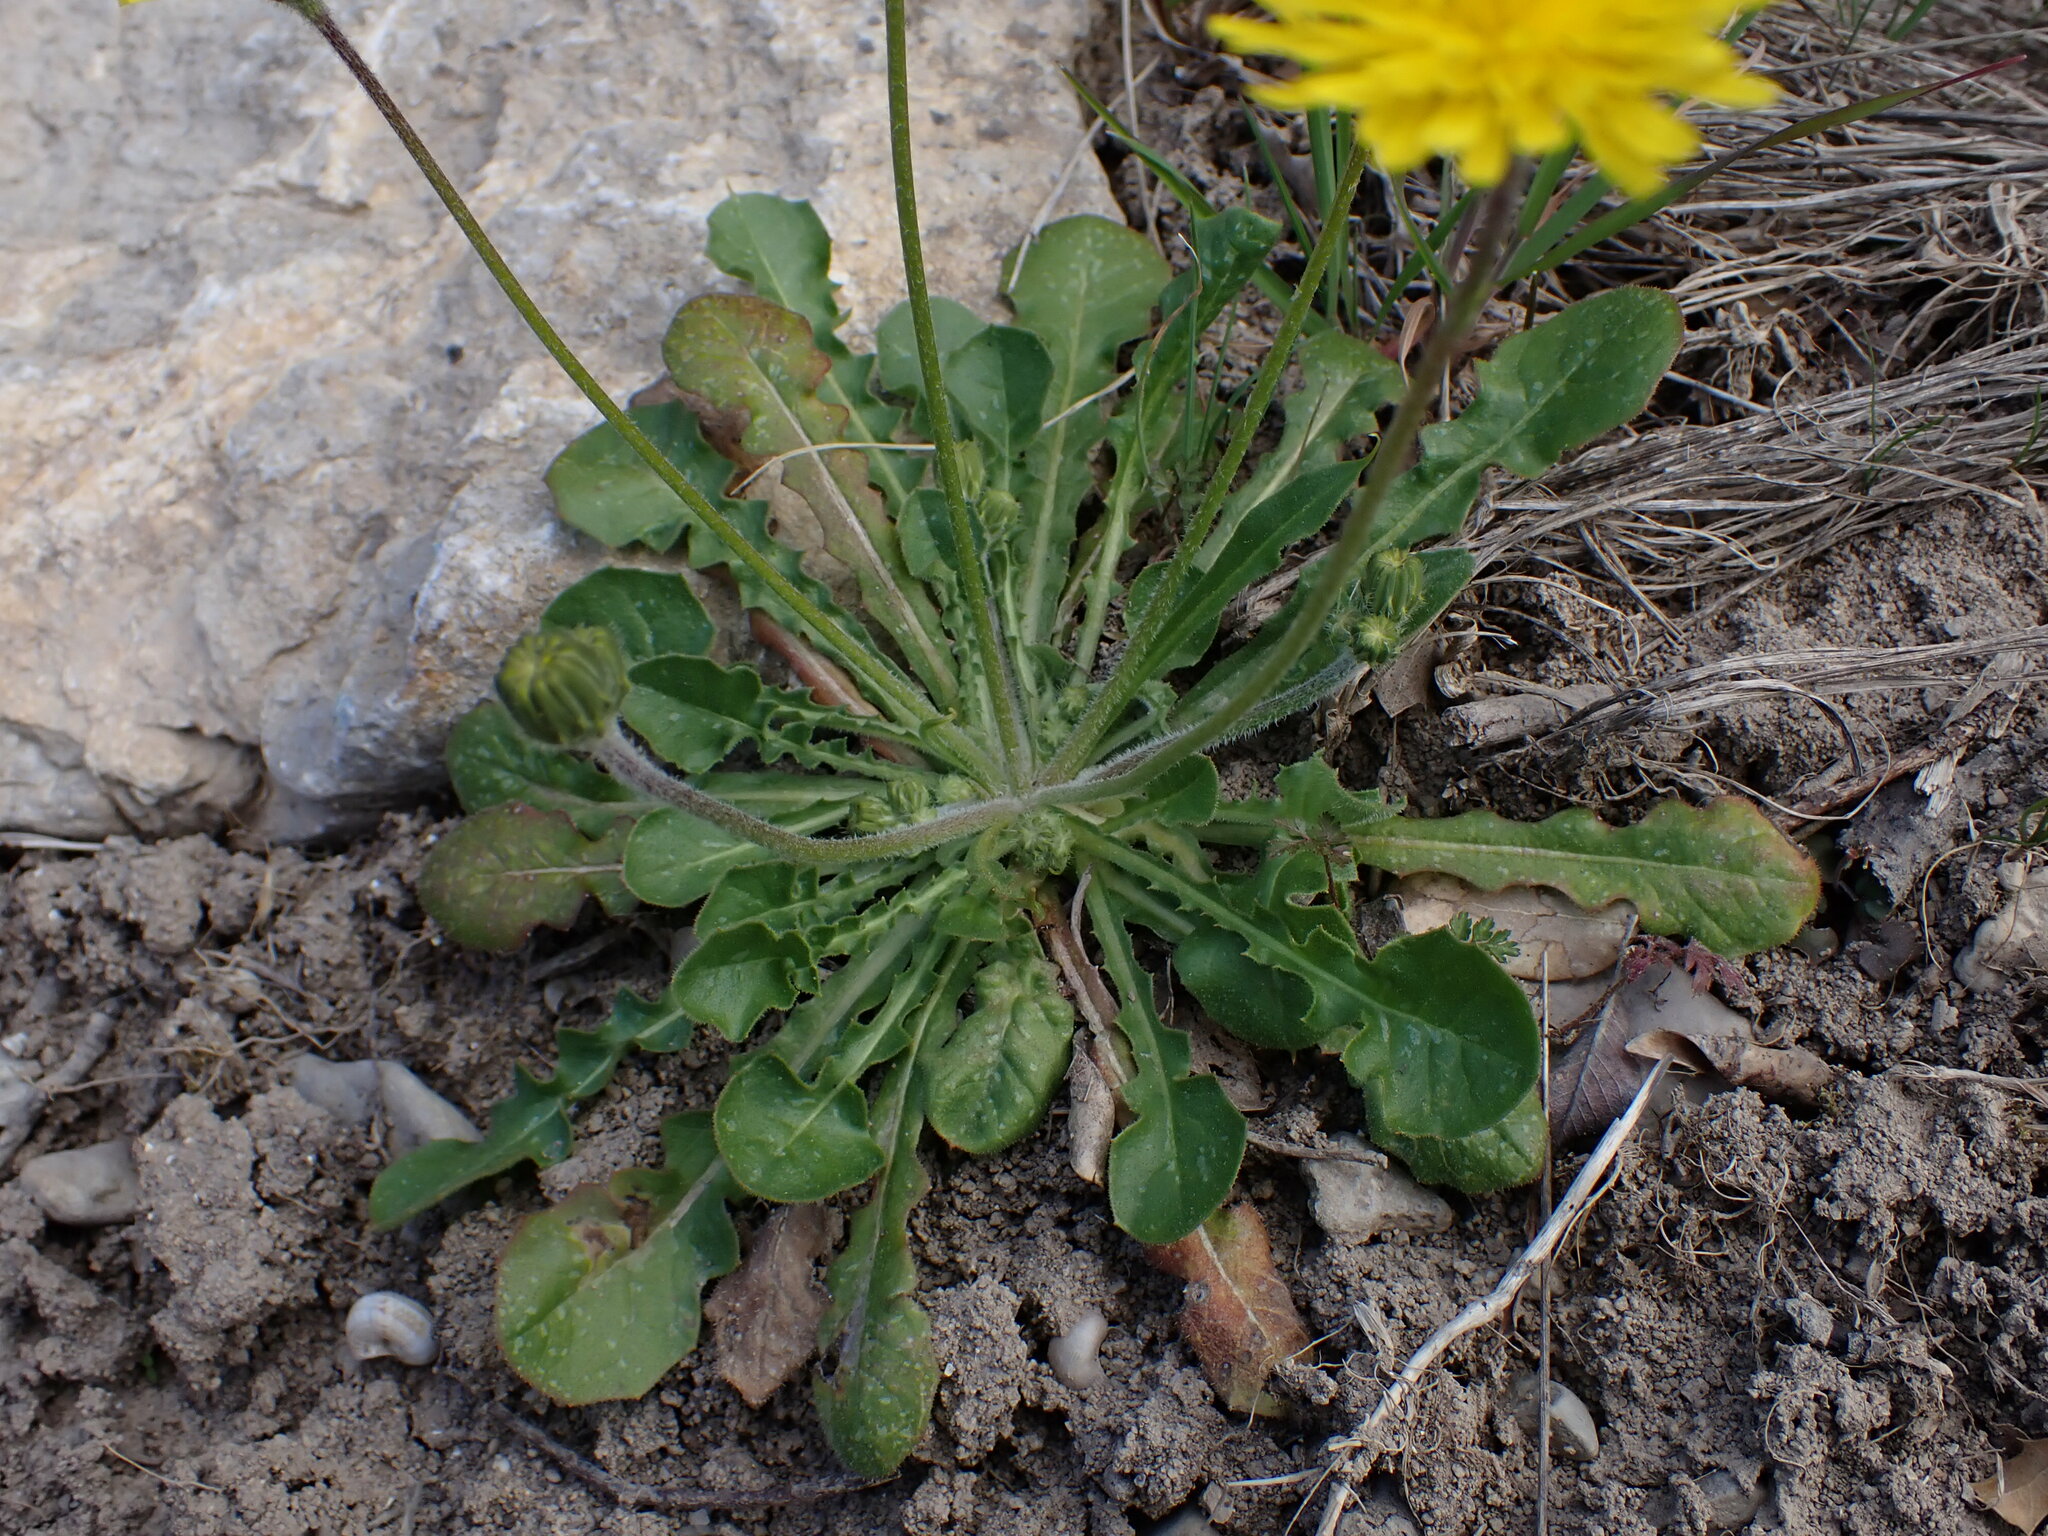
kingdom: Plantae
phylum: Tracheophyta
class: Magnoliopsida
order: Asterales
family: Asteraceae
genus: Crepis
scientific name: Crepis sancta
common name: Hawk's-beard
